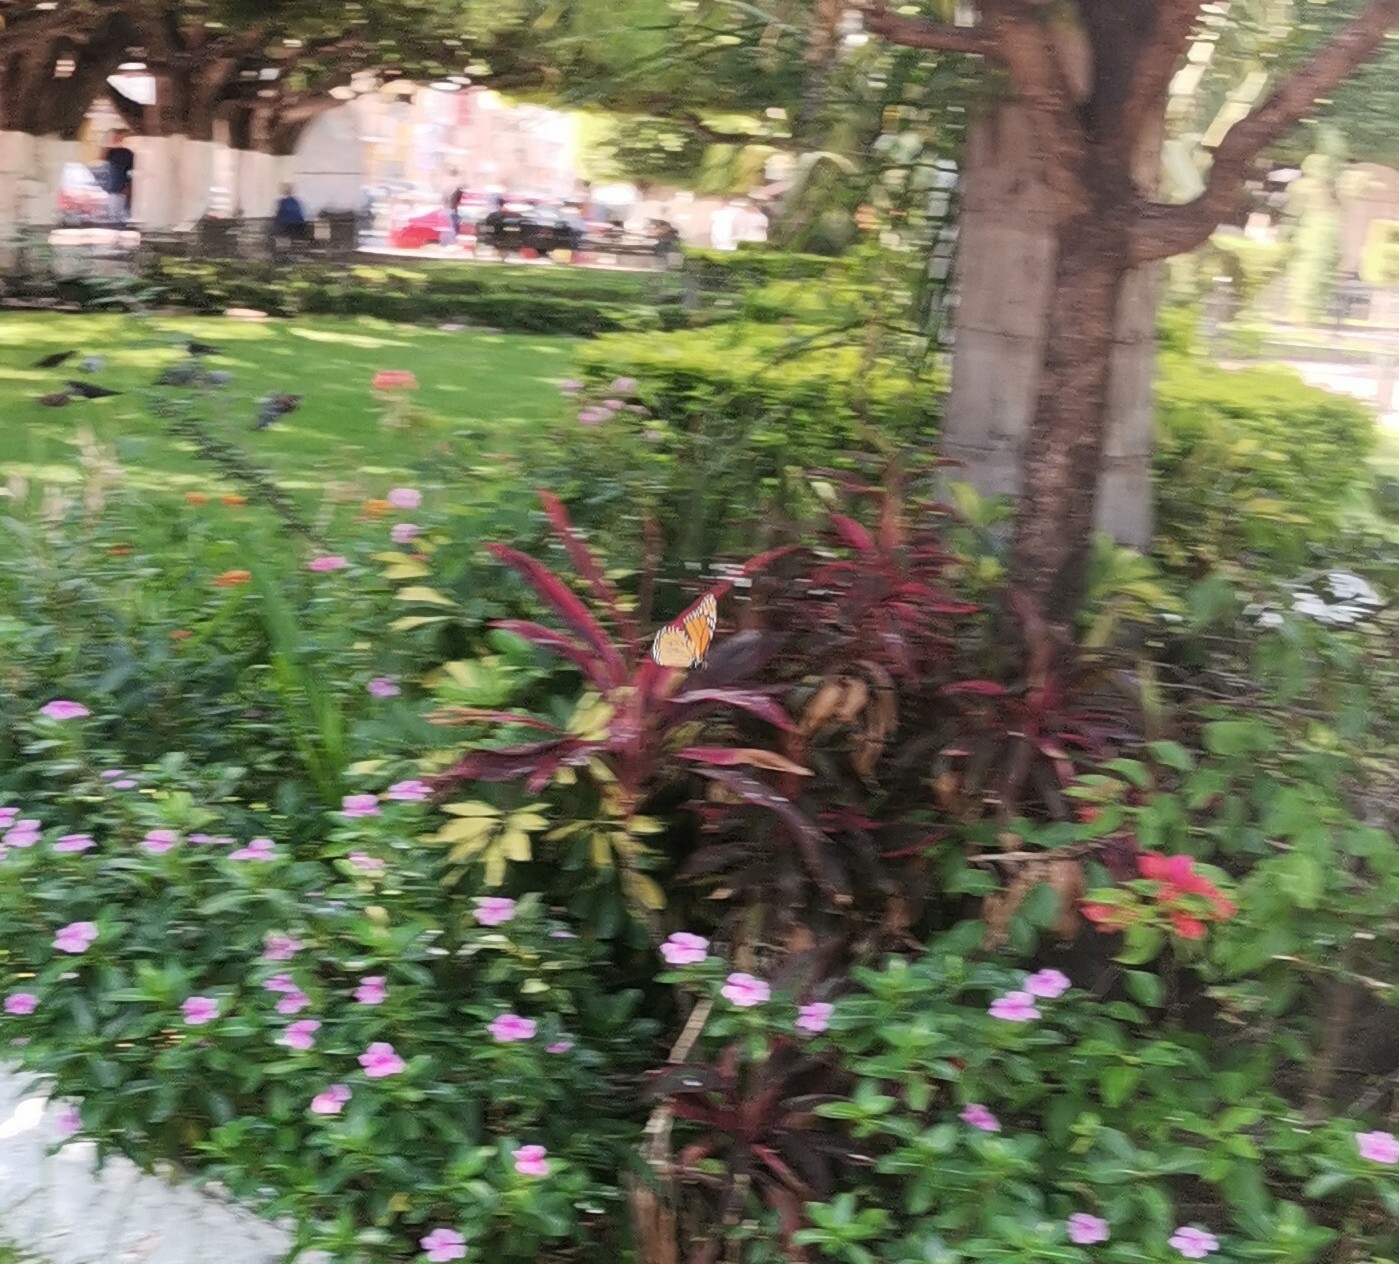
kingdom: Animalia
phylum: Arthropoda
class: Insecta
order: Lepidoptera
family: Nymphalidae
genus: Danaus
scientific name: Danaus plexippus
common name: Monarch
